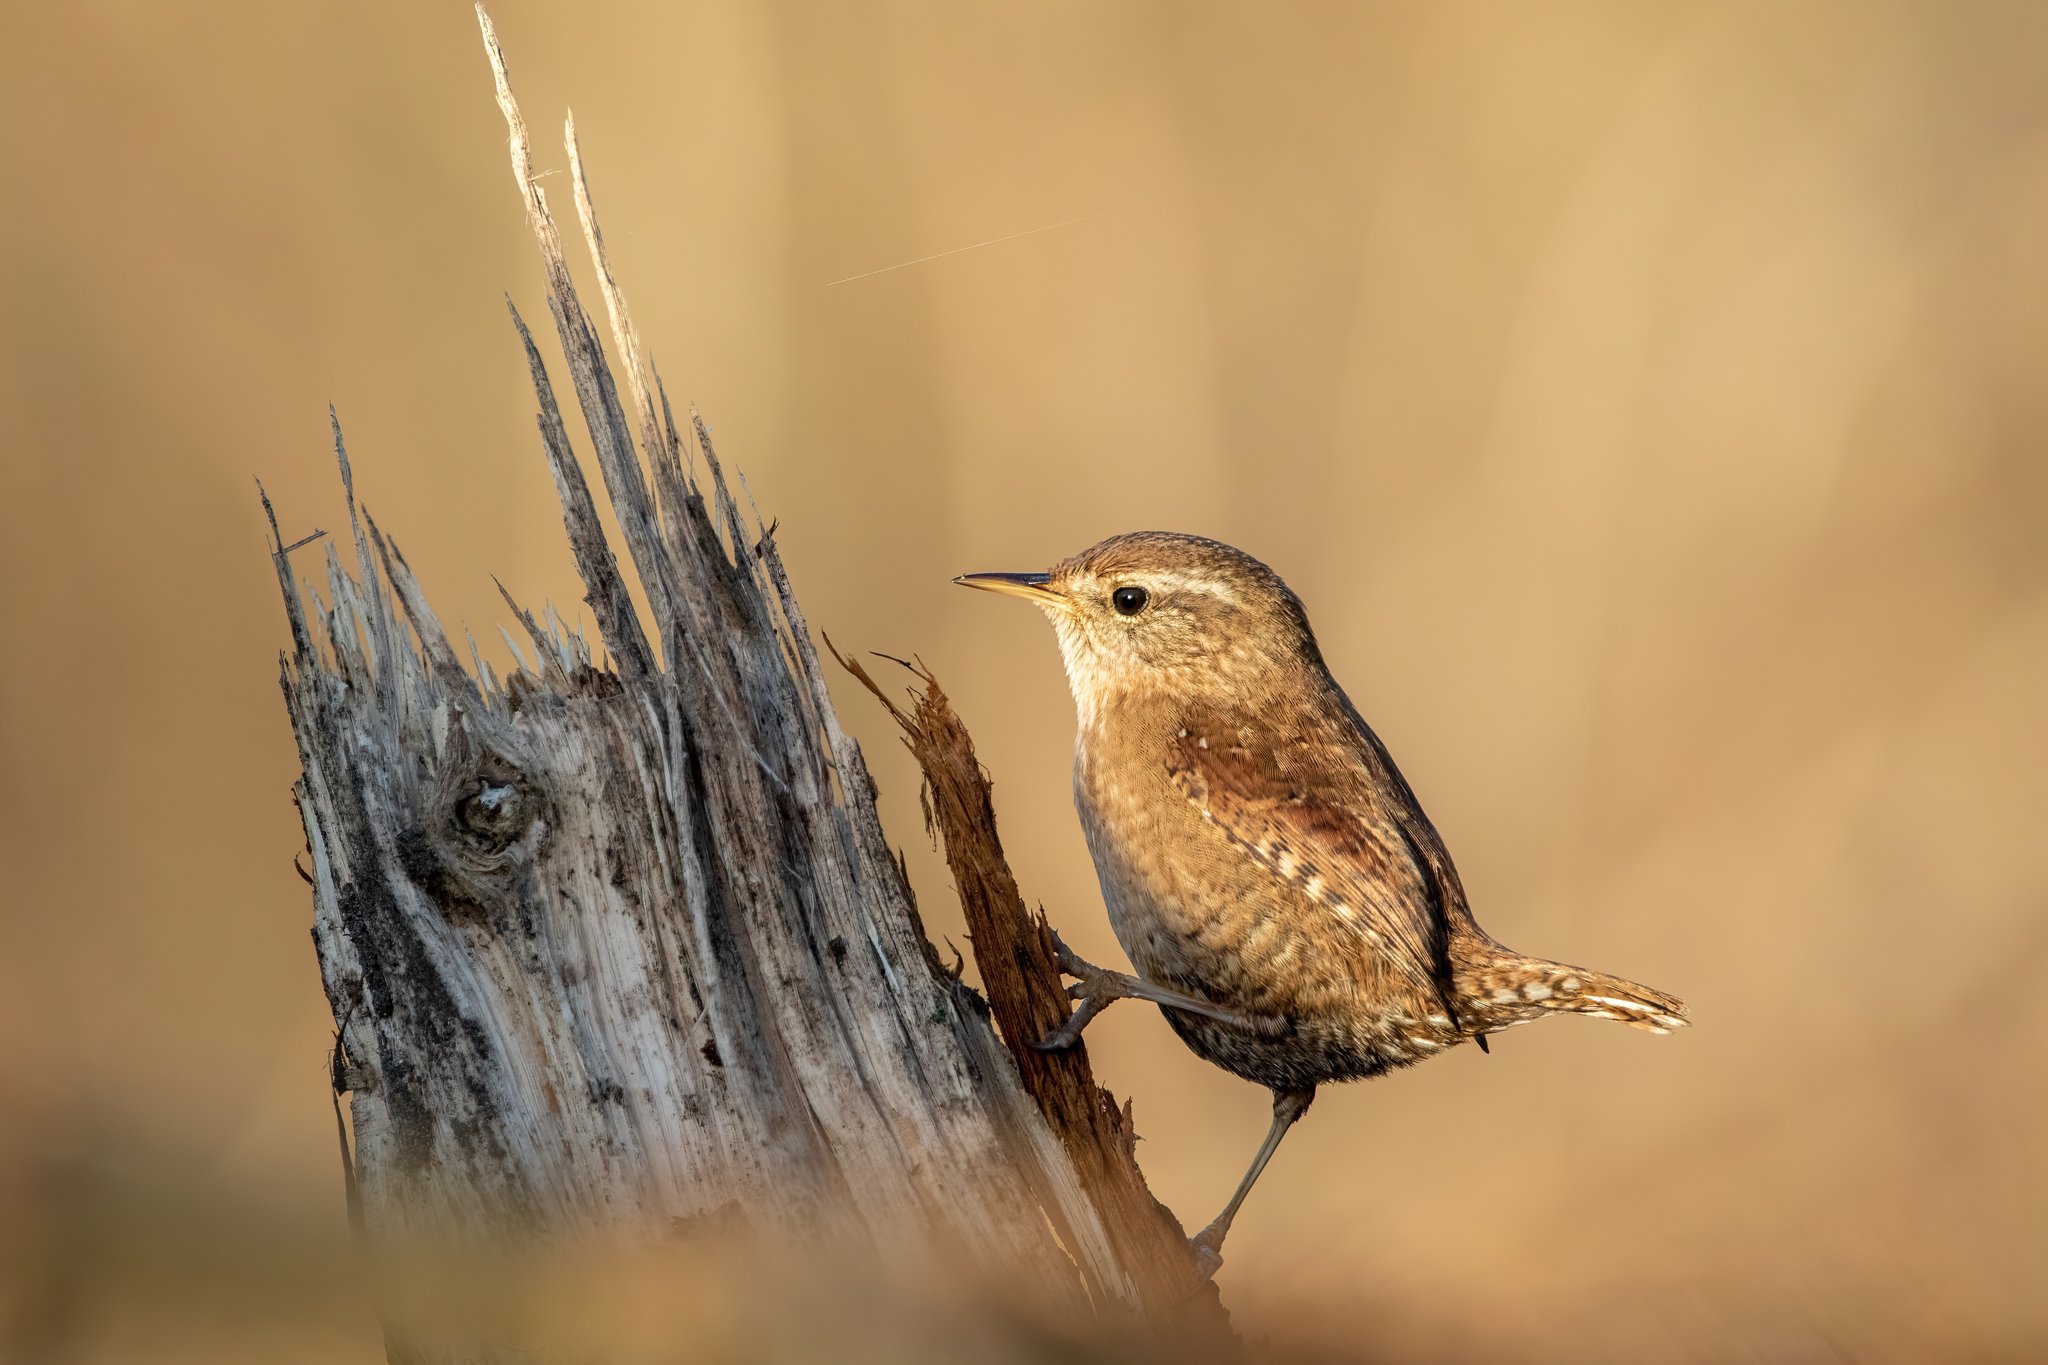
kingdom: Animalia
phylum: Chordata
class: Aves
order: Passeriformes
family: Troglodytidae
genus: Troglodytes
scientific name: Troglodytes troglodytes
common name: Eurasian wren
